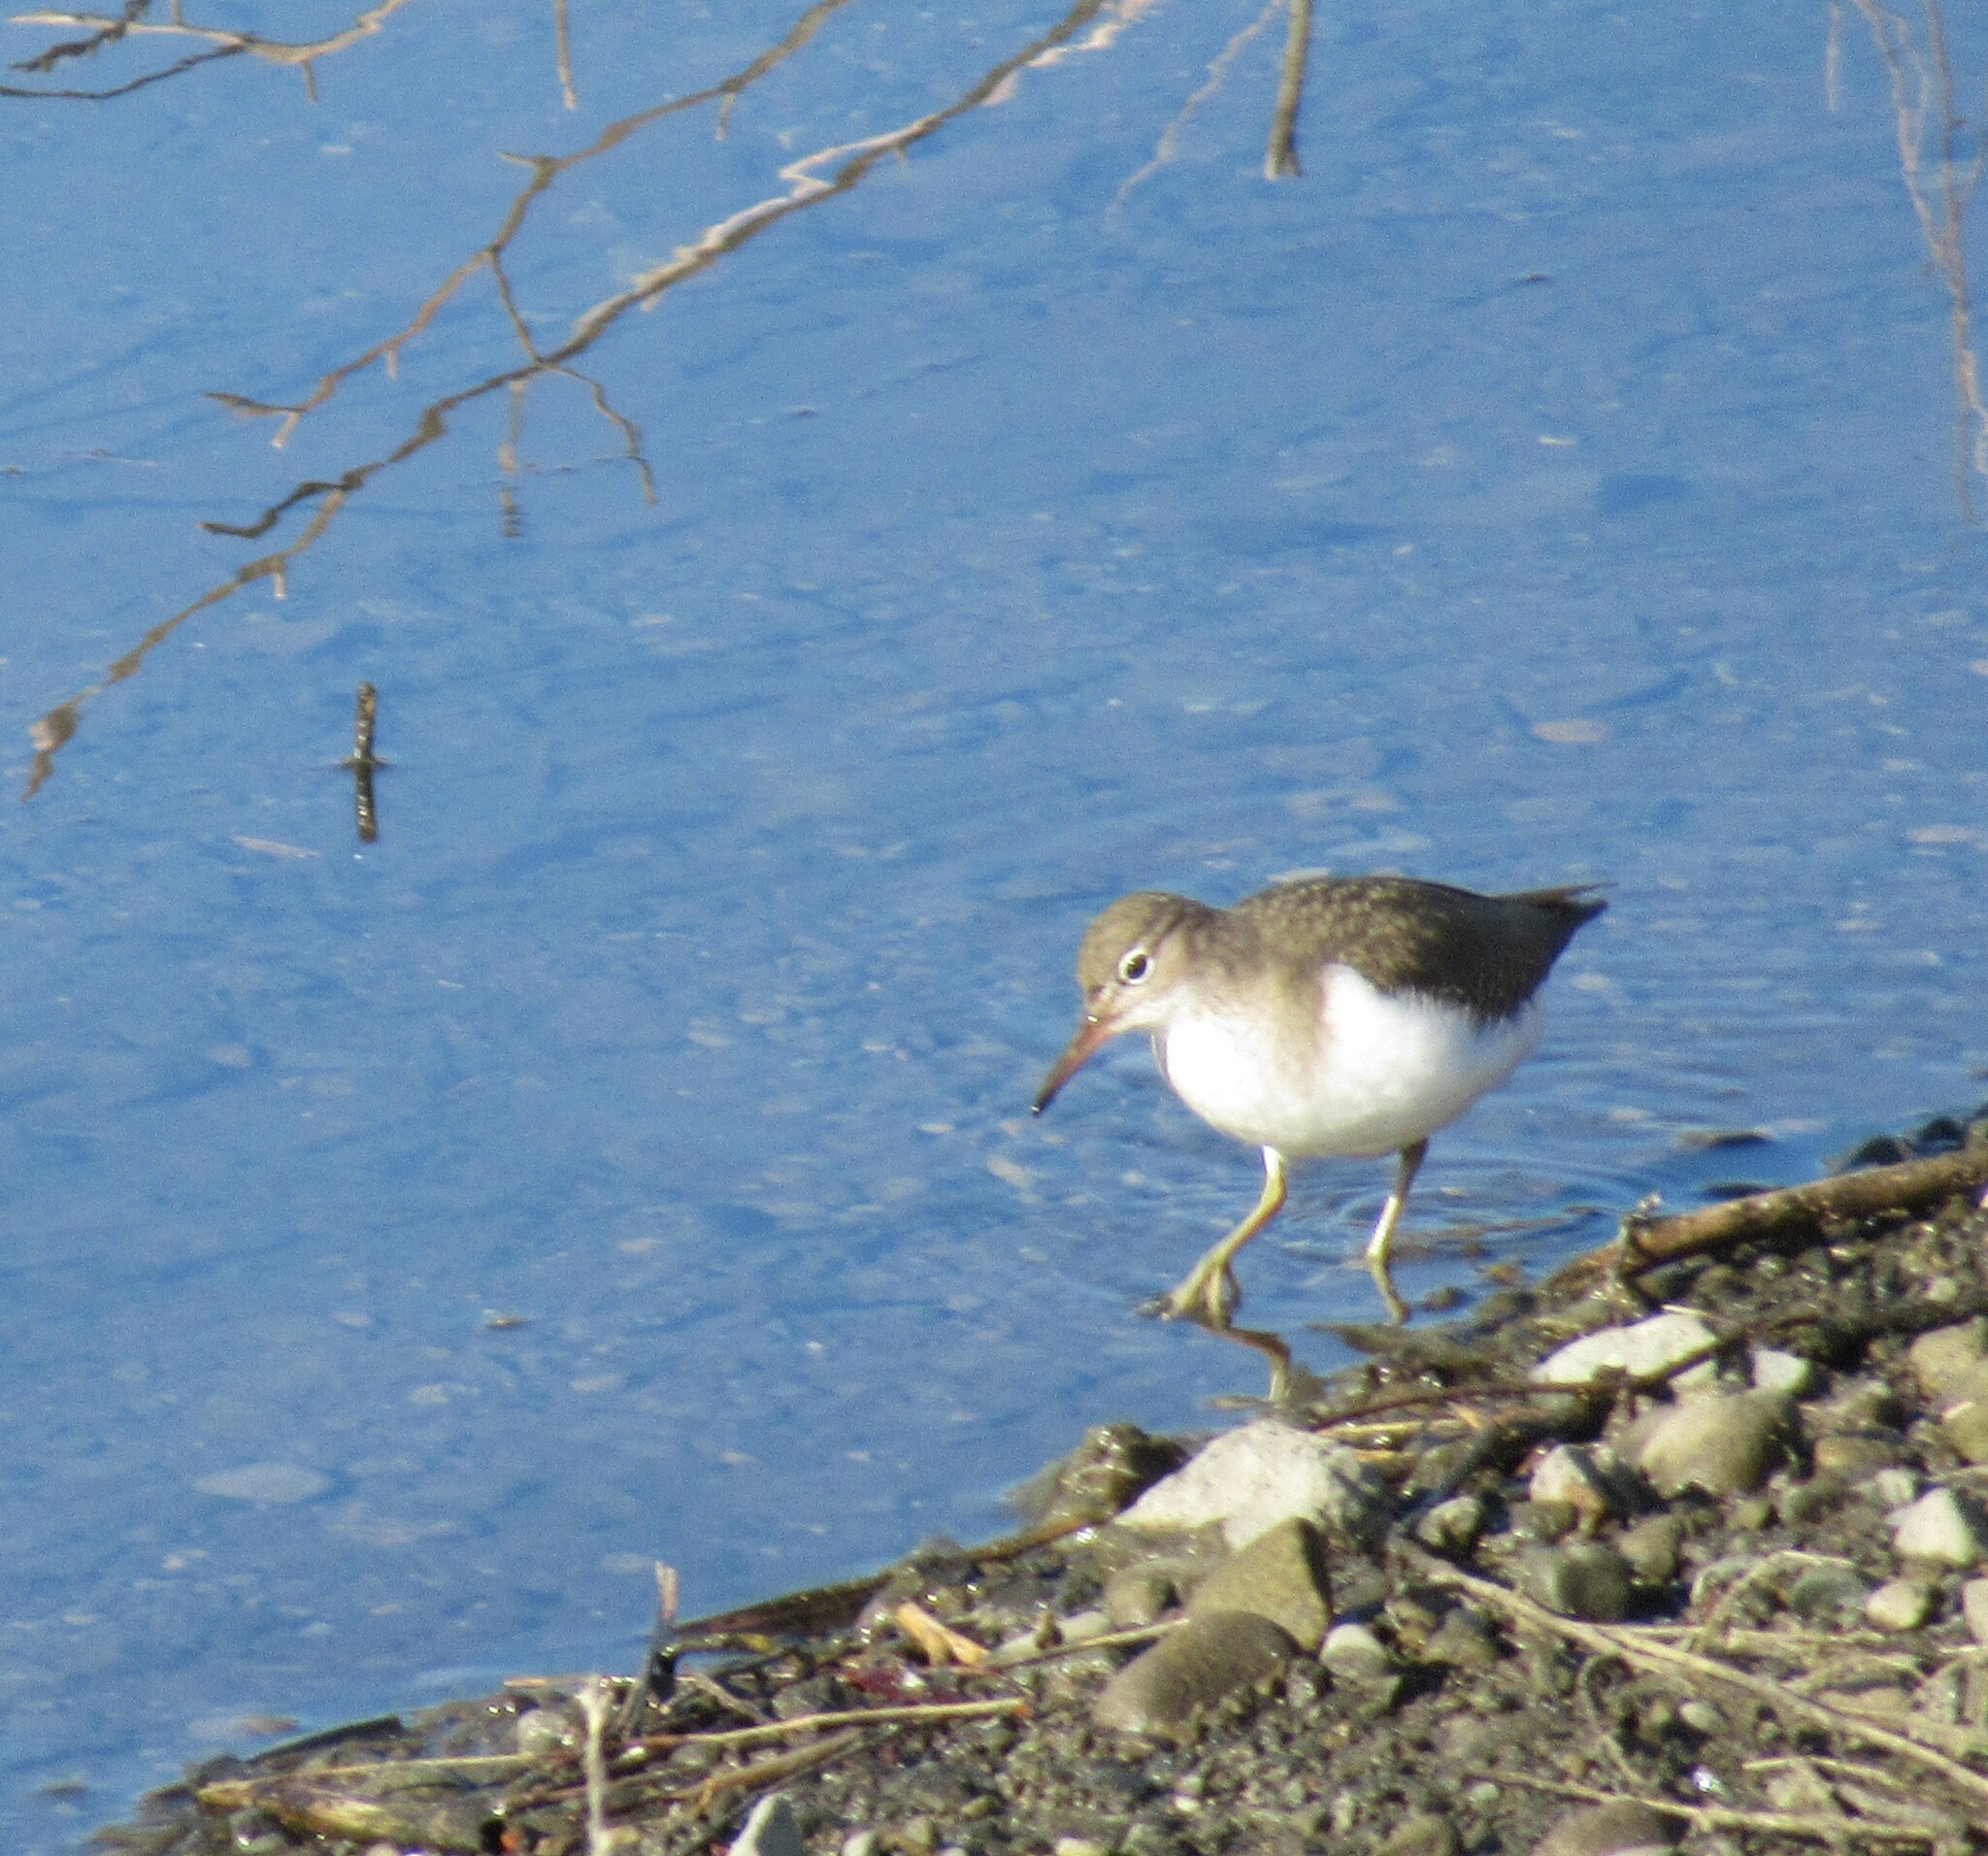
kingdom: Animalia
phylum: Chordata
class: Aves
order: Charadriiformes
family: Scolopacidae
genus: Actitis
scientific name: Actitis macularius
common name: Spotted sandpiper
